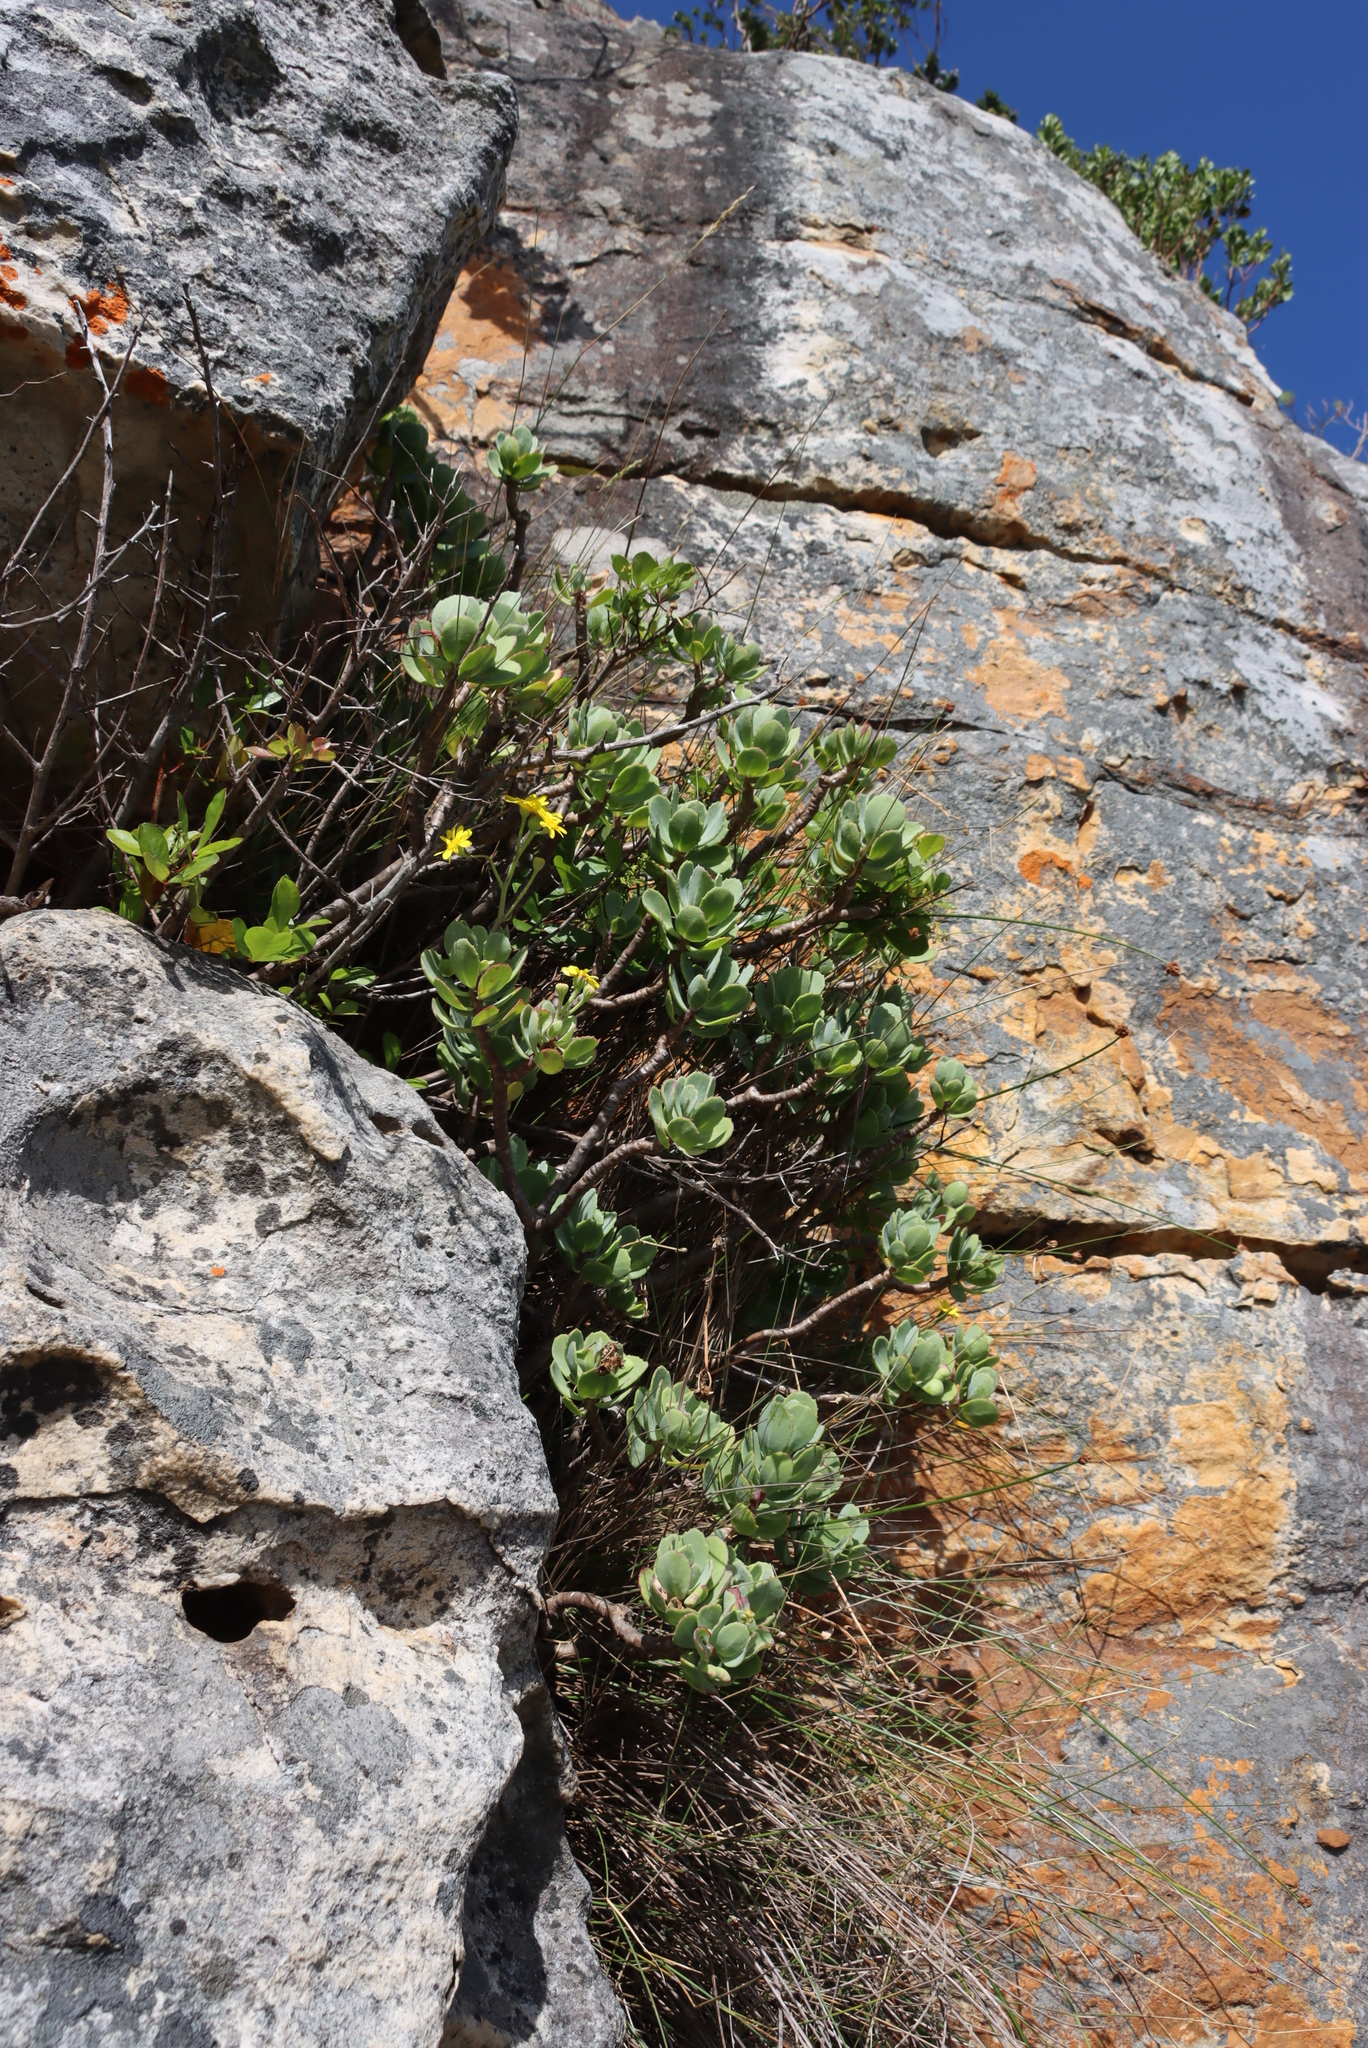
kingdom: Plantae
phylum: Tracheophyta
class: Magnoliopsida
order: Asterales
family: Asteraceae
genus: Othonna
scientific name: Othonna dentata
